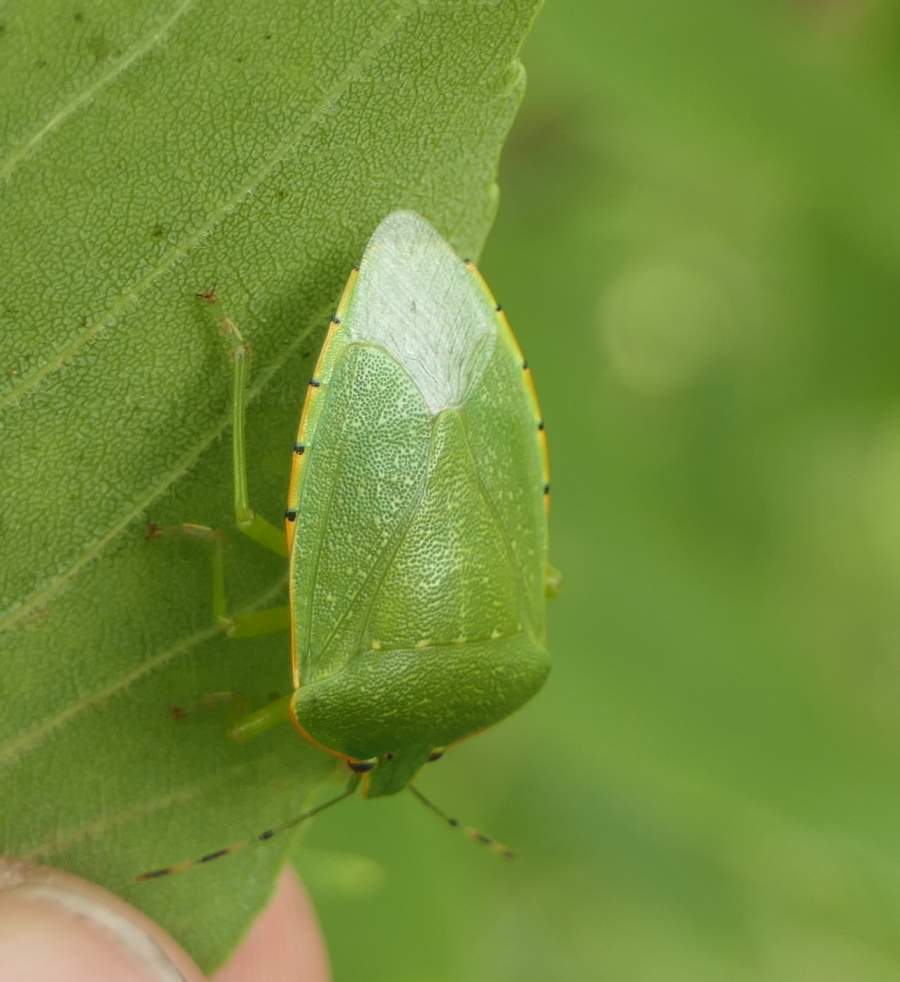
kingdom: Animalia
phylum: Arthropoda
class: Insecta
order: Hemiptera
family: Pentatomidae
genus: Chinavia
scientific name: Chinavia hilaris
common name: Green stink bug
